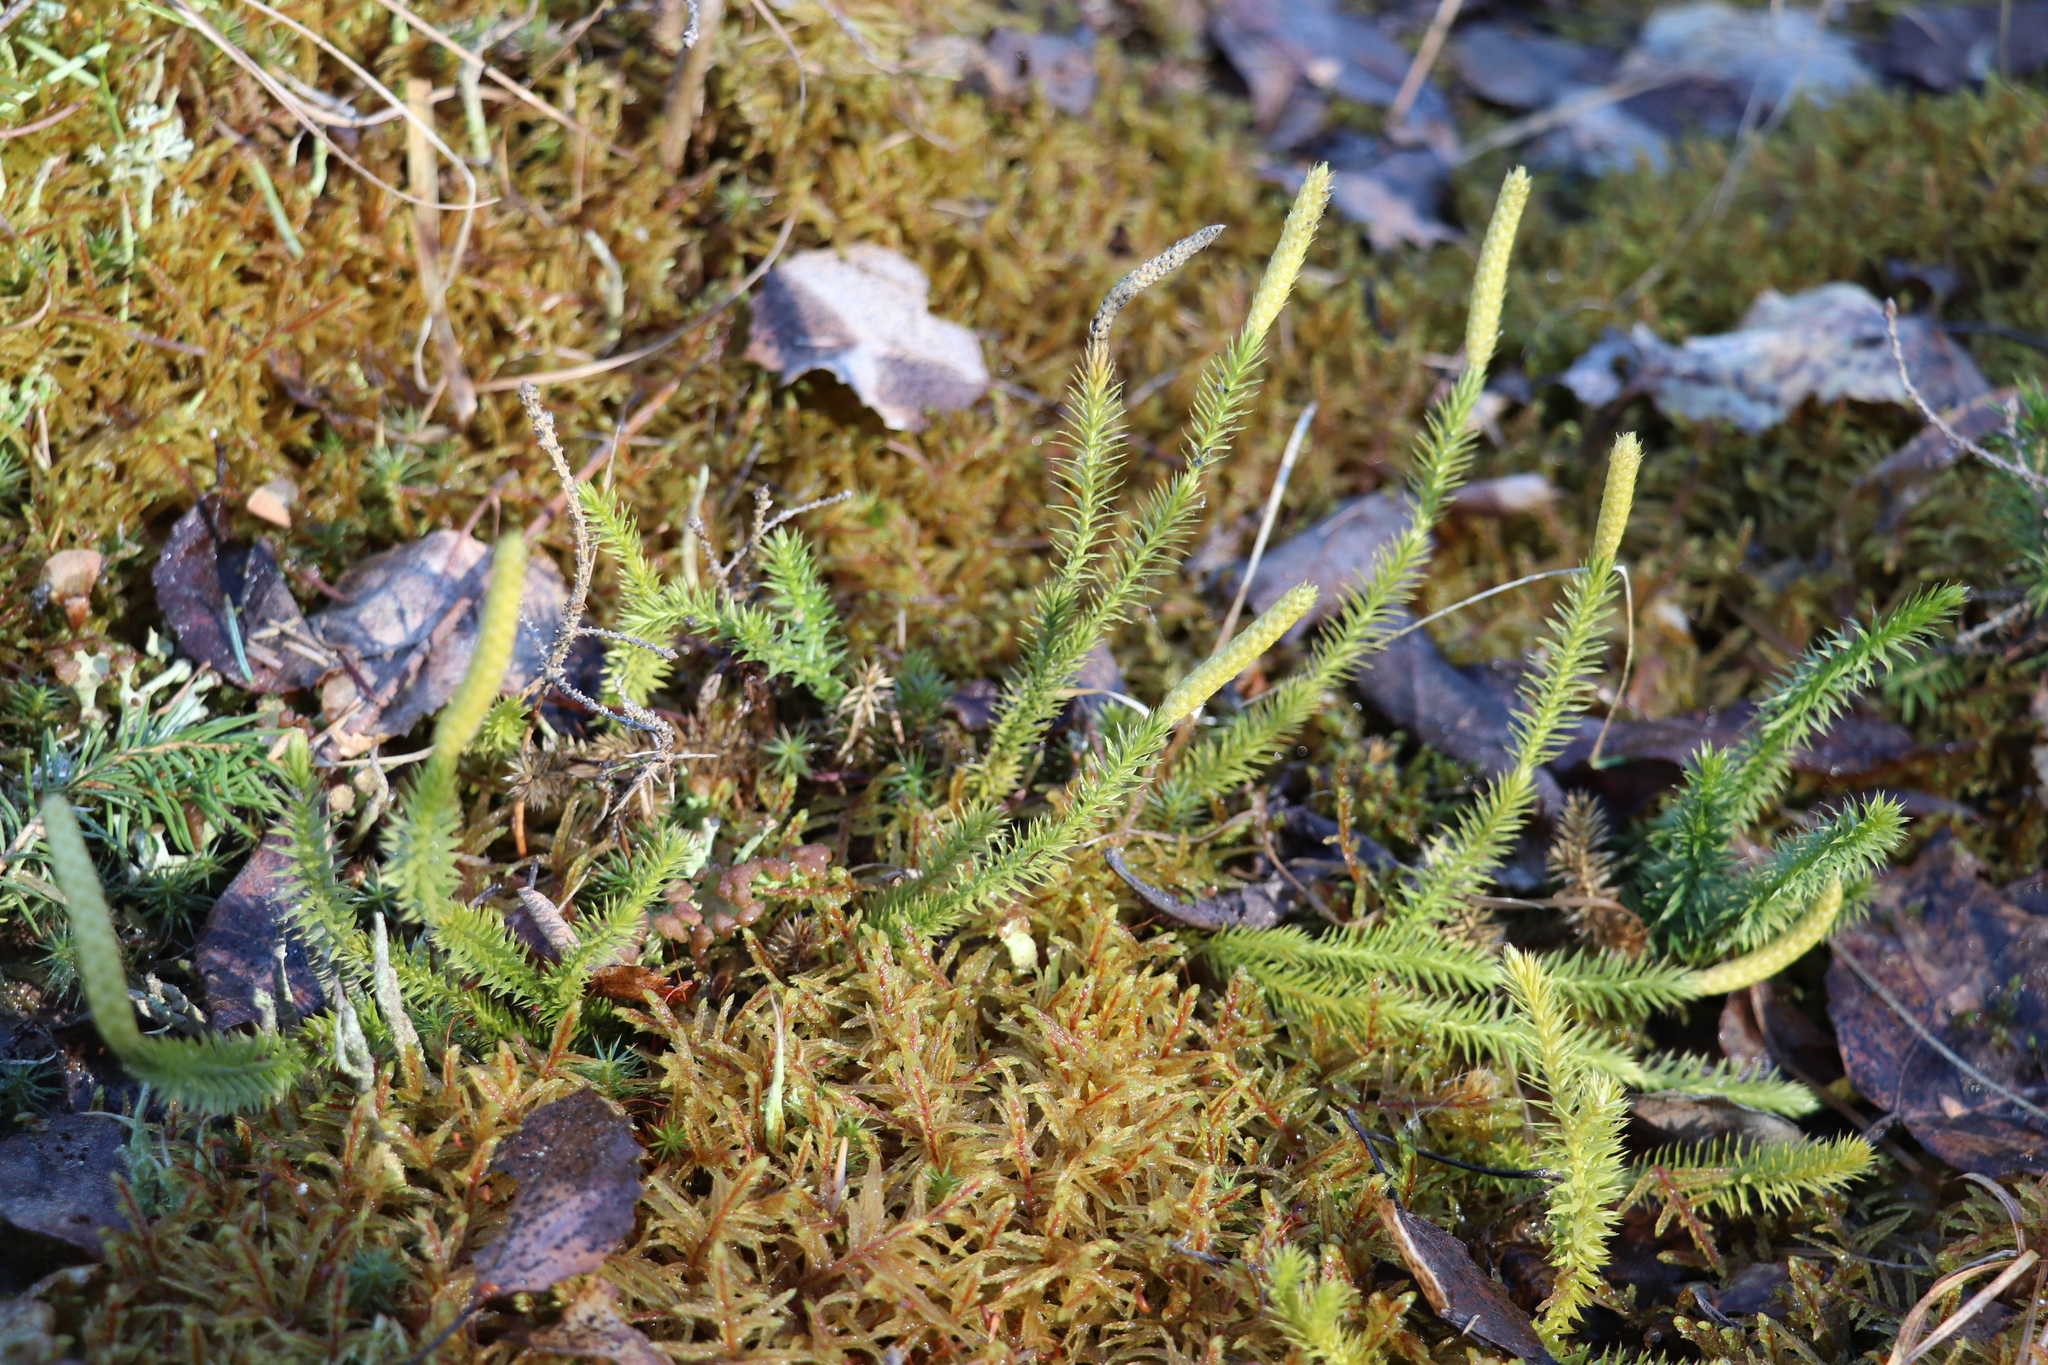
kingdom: Plantae
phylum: Tracheophyta
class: Lycopodiopsida
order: Lycopodiales
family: Lycopodiaceae
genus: Spinulum
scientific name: Spinulum annotinum
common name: Interrupted club-moss
